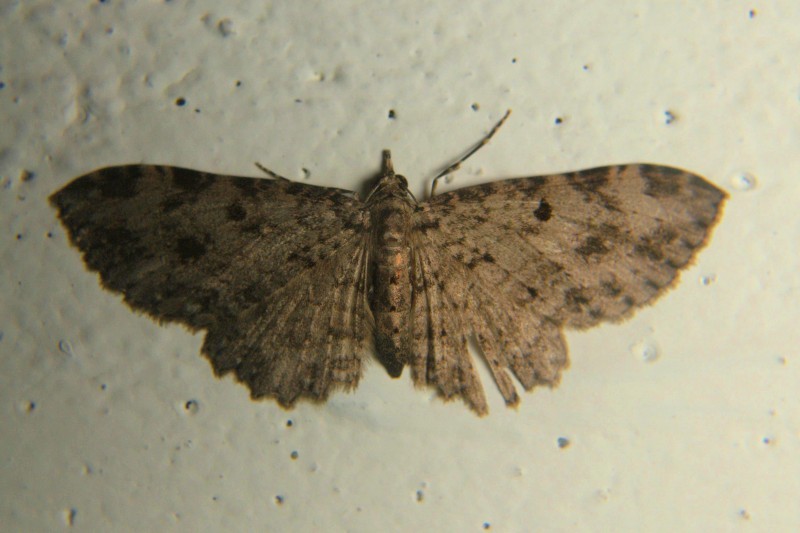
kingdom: Animalia
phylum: Arthropoda
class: Insecta
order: Lepidoptera
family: Geometridae
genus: Collix
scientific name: Collix ghosha
